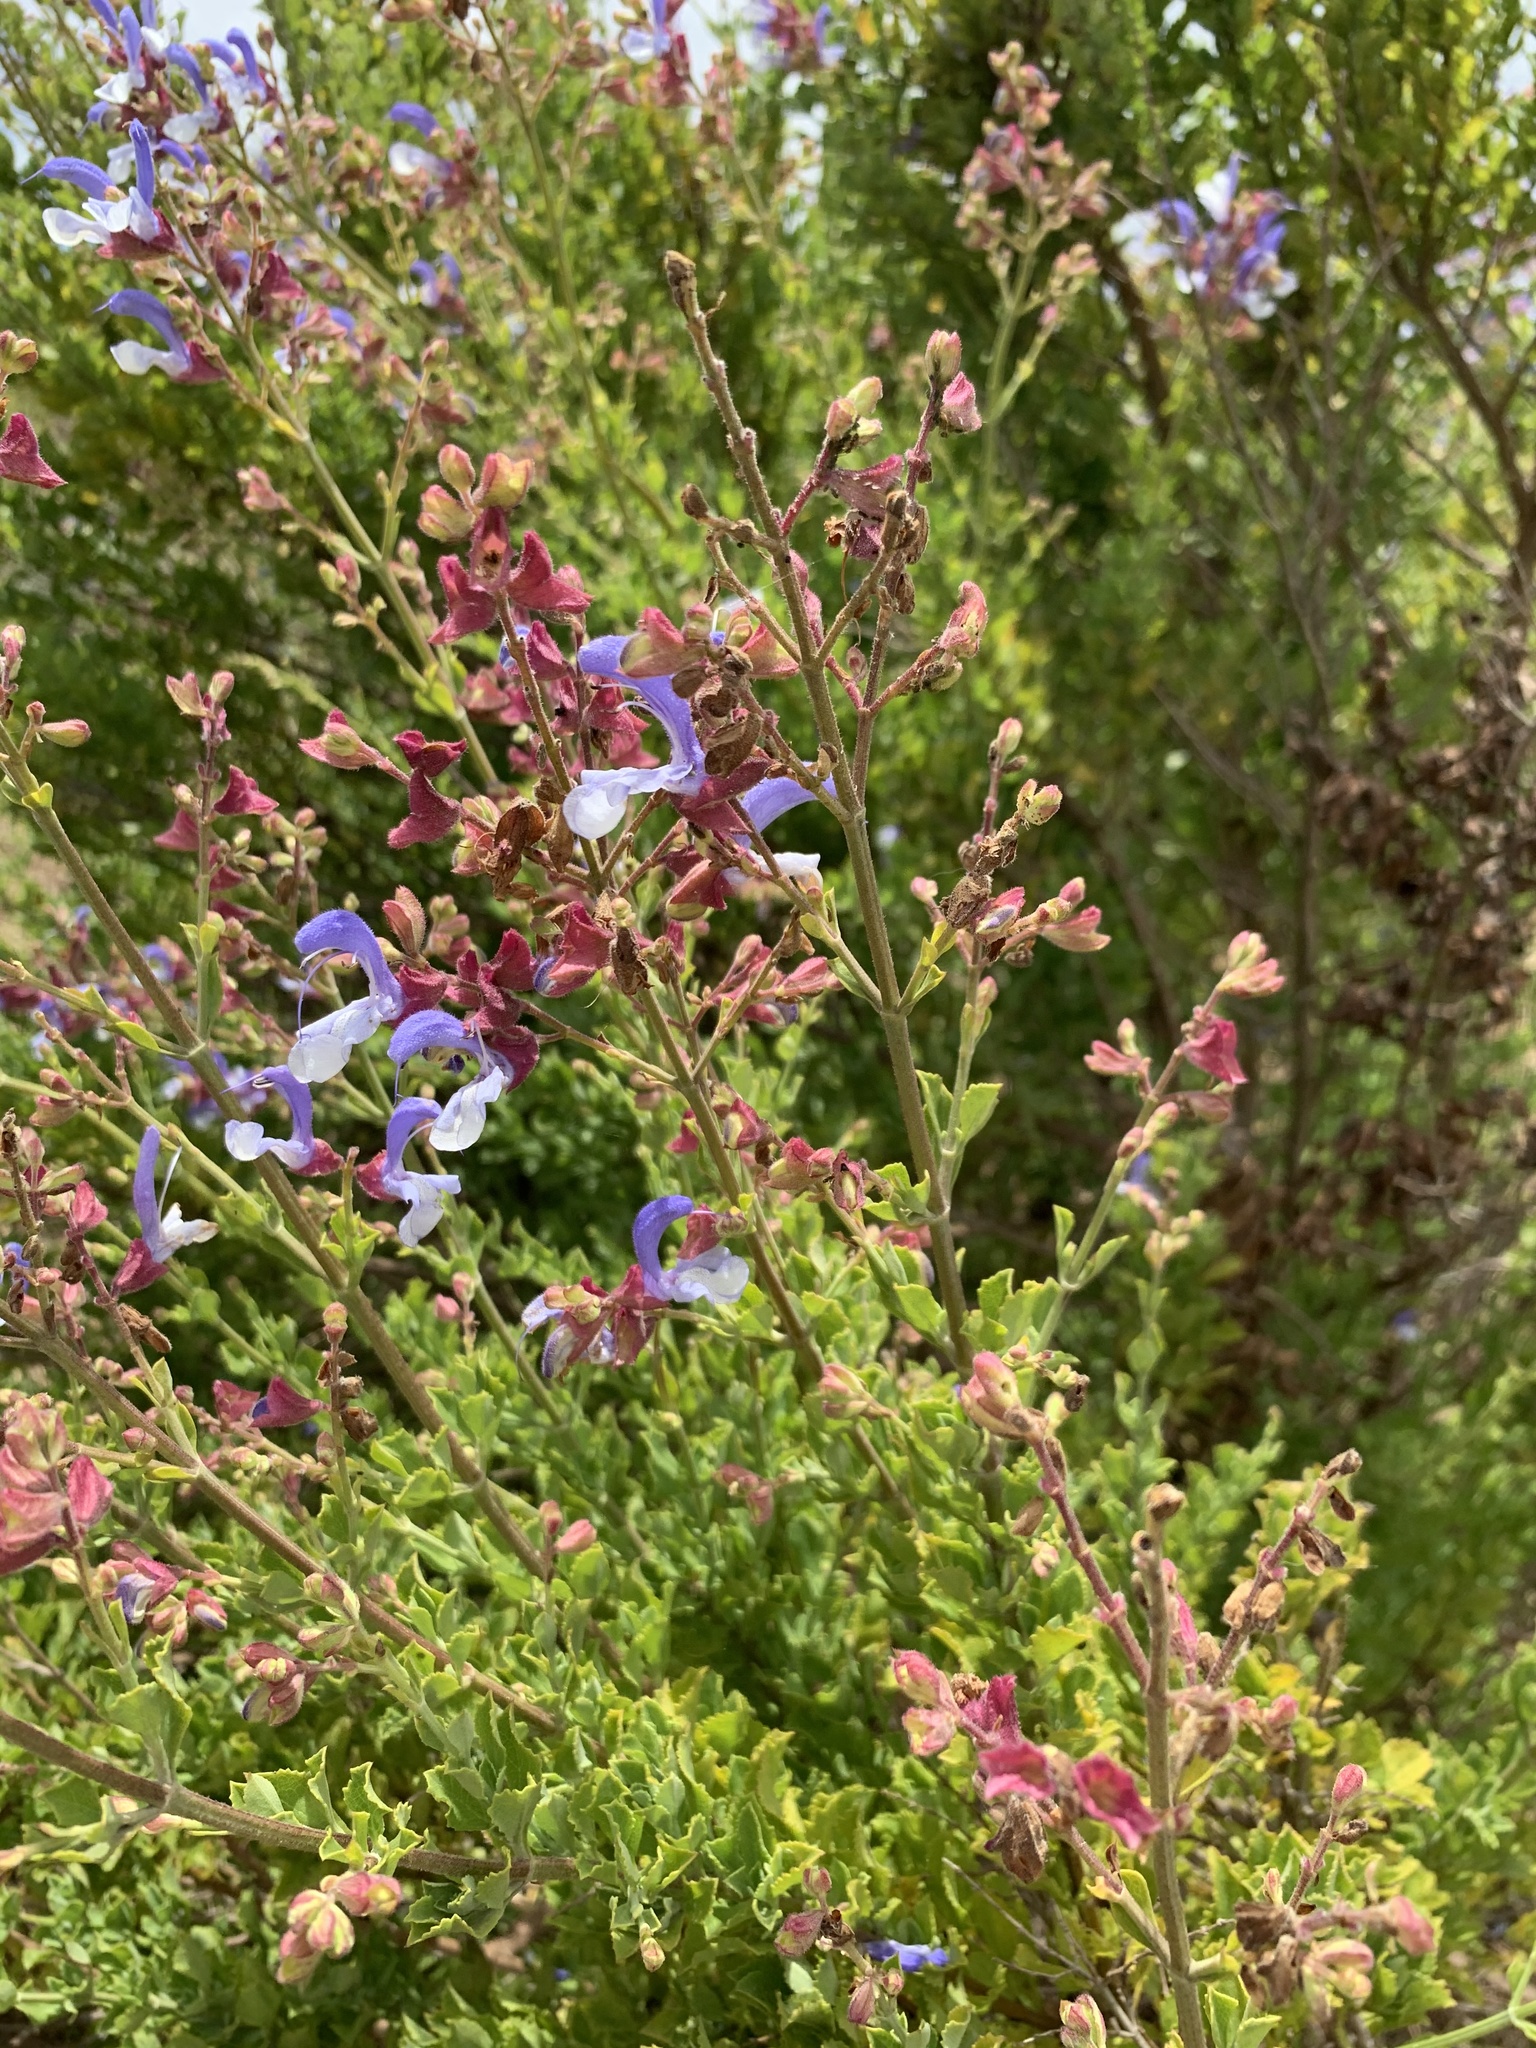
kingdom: Plantae
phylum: Tracheophyta
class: Magnoliopsida
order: Lamiales
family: Lamiaceae
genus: Salvia
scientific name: Salvia chamelaeagnea
